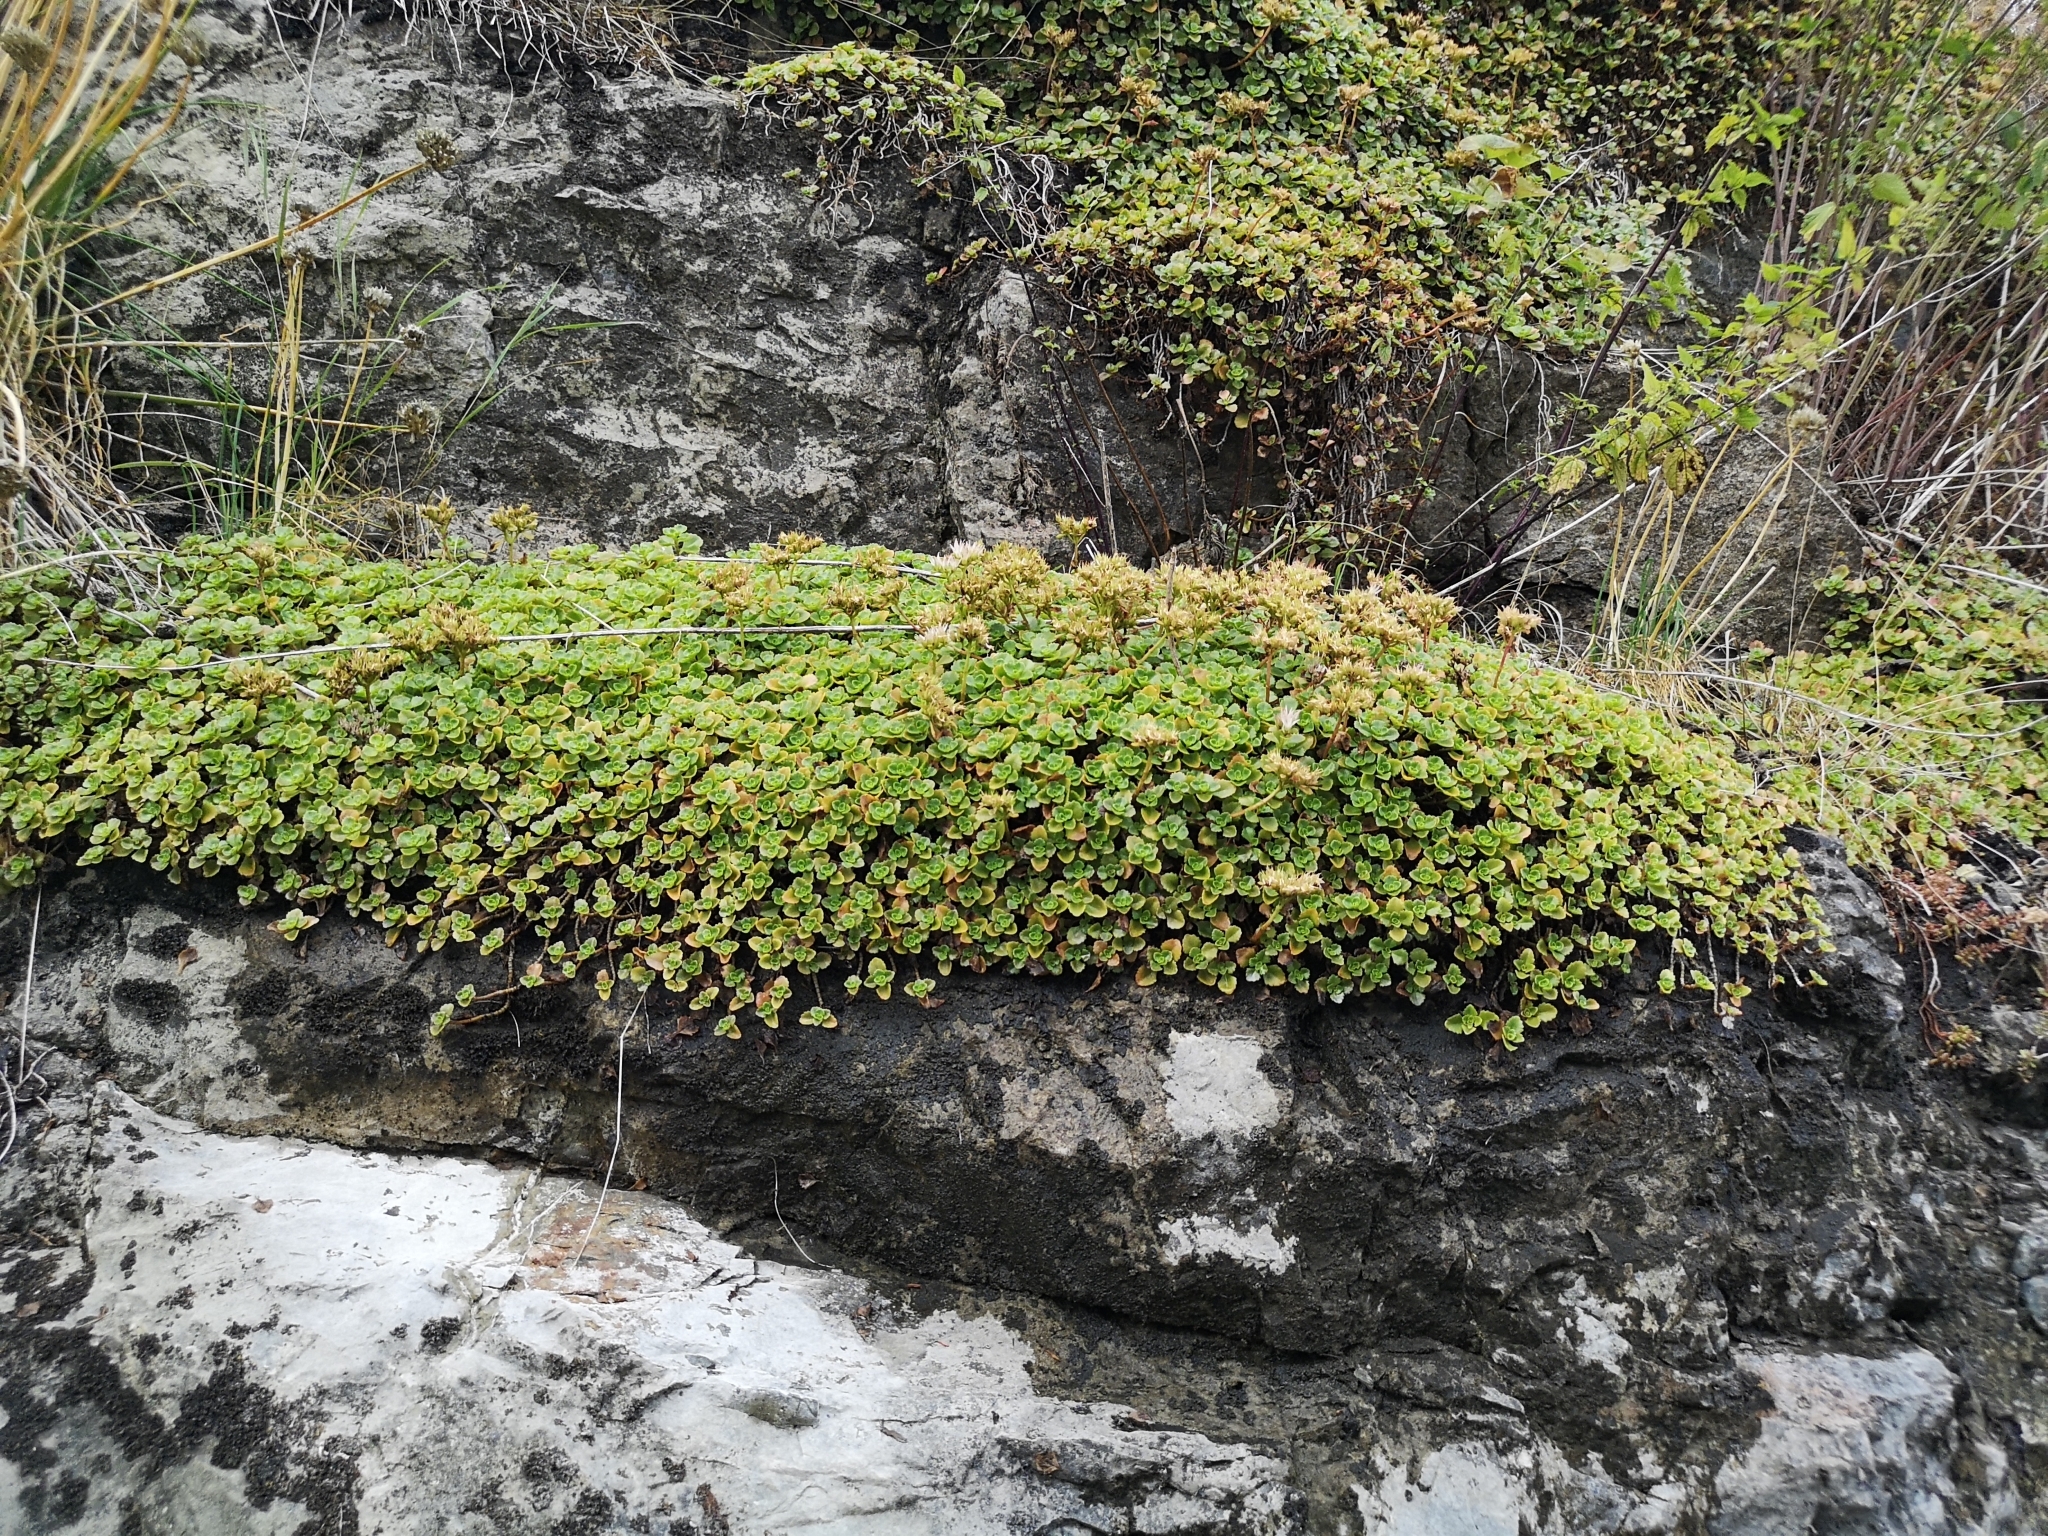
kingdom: Plantae
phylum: Tracheophyta
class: Magnoliopsida
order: Saxifragales
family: Crassulaceae
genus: Phedimus
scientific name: Phedimus spurius
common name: Caucasian stonecrop
